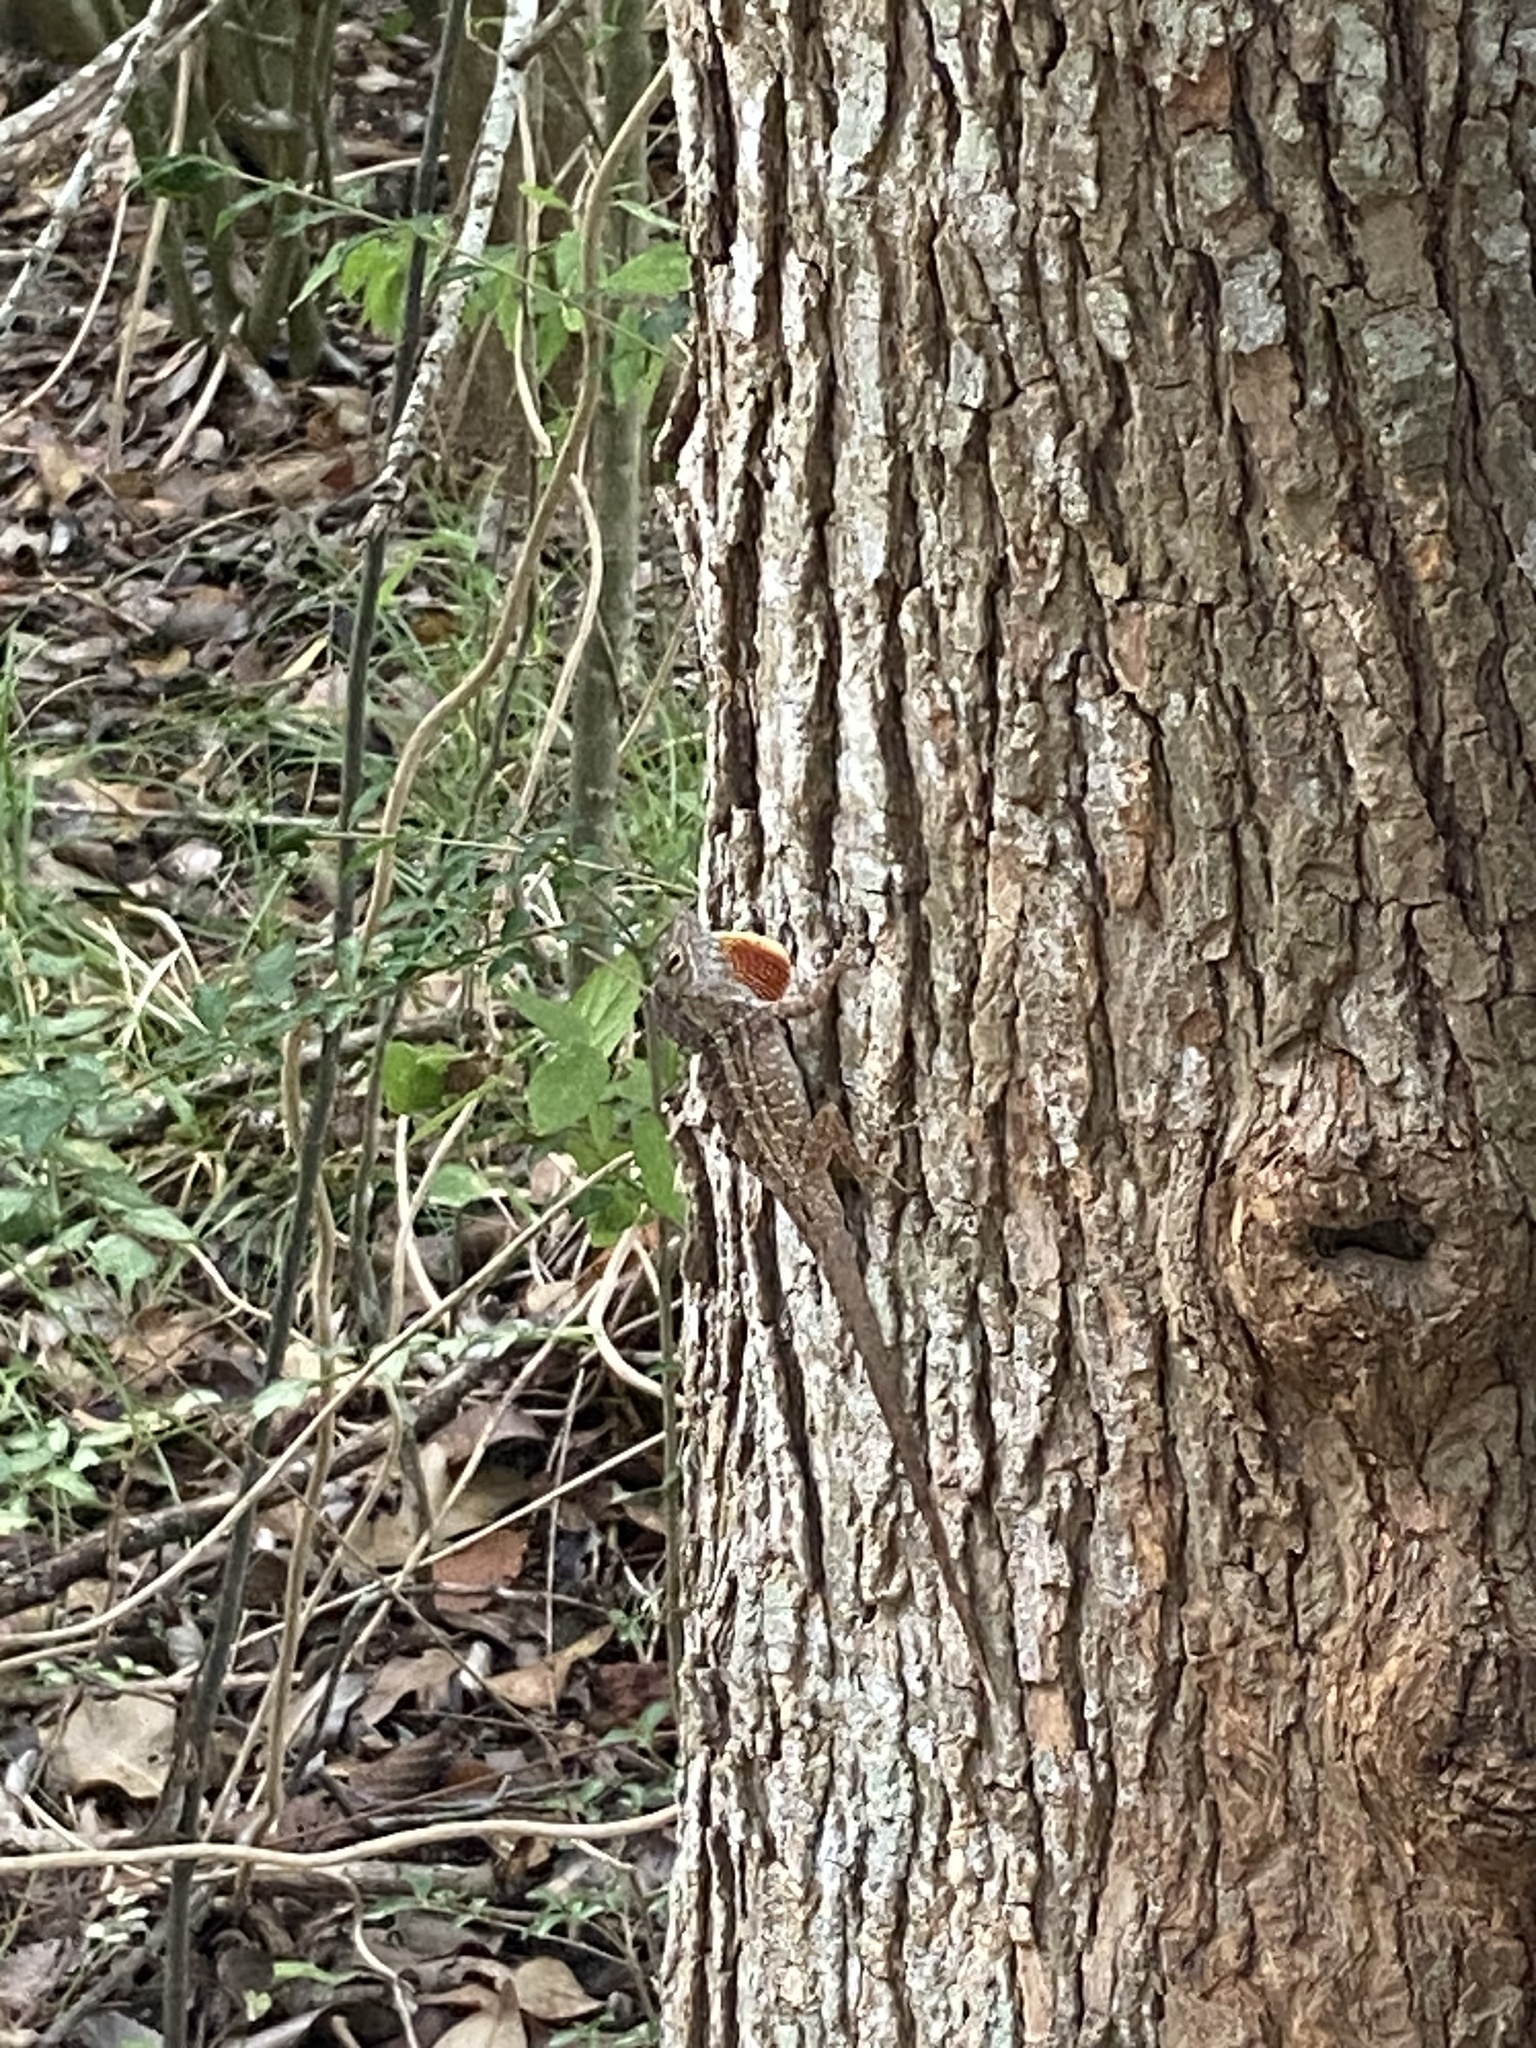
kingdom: Animalia
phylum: Chordata
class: Squamata
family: Dactyloidae
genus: Anolis
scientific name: Anolis sagrei
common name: Brown anole
